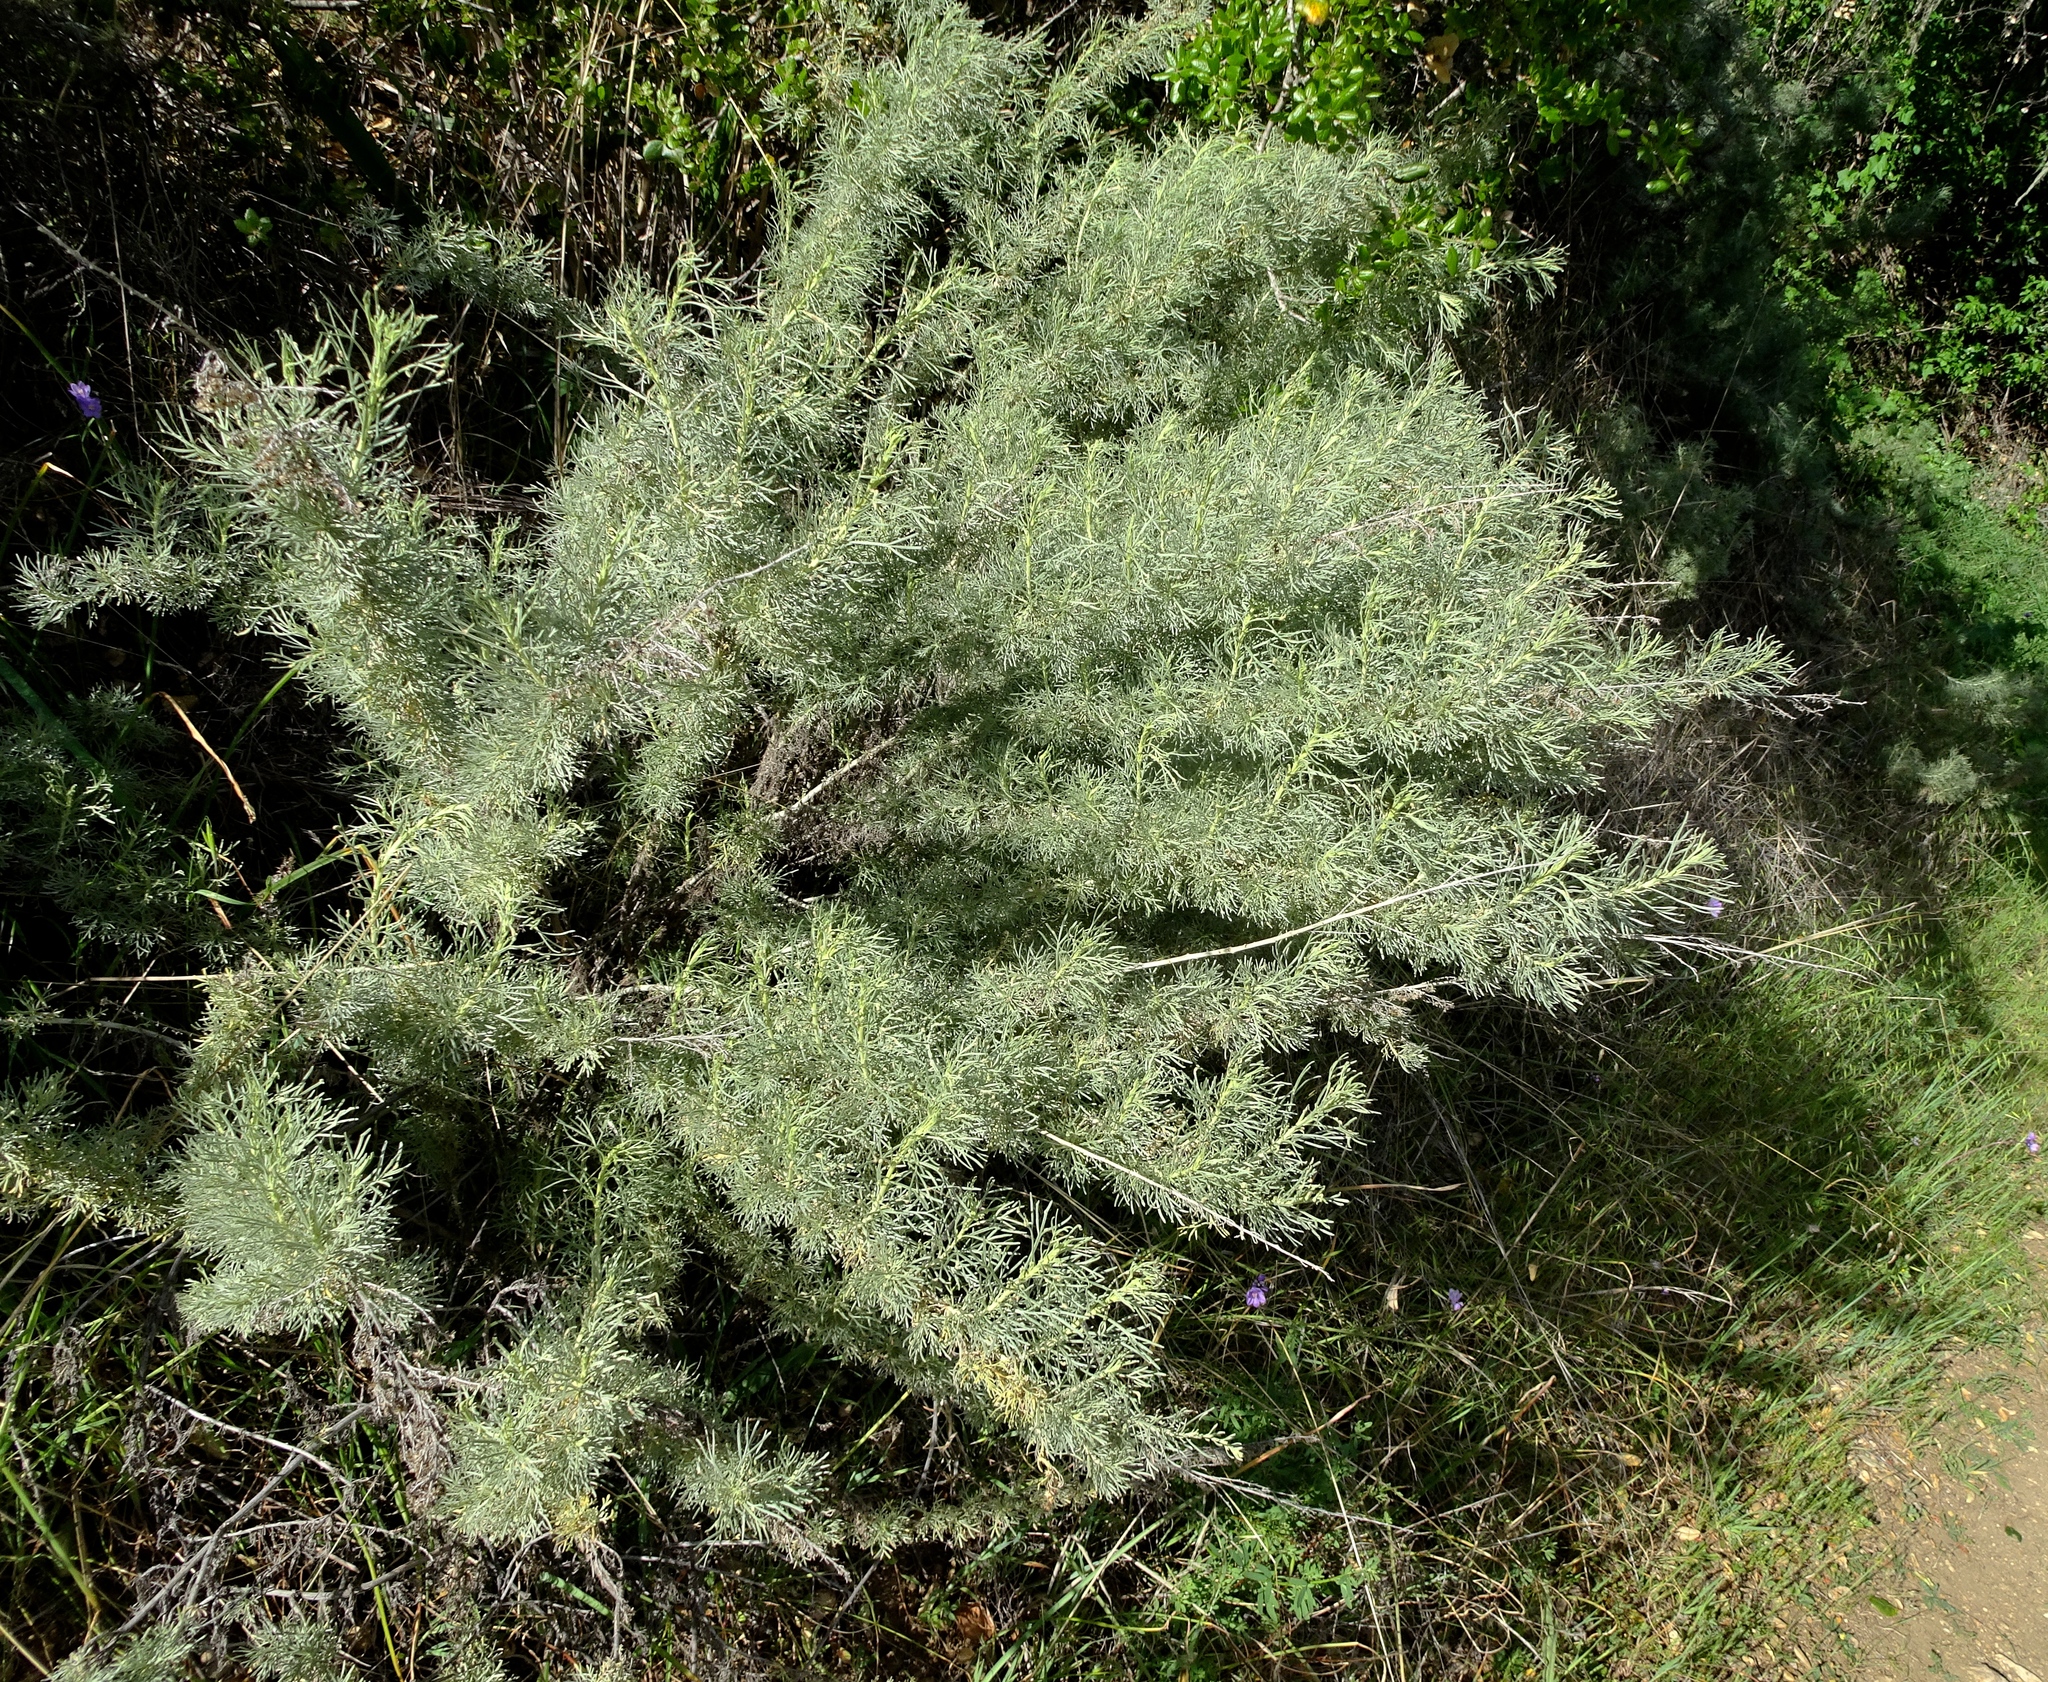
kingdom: Plantae
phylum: Tracheophyta
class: Magnoliopsida
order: Asterales
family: Asteraceae
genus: Artemisia
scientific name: Artemisia californica
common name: California sagebrush
